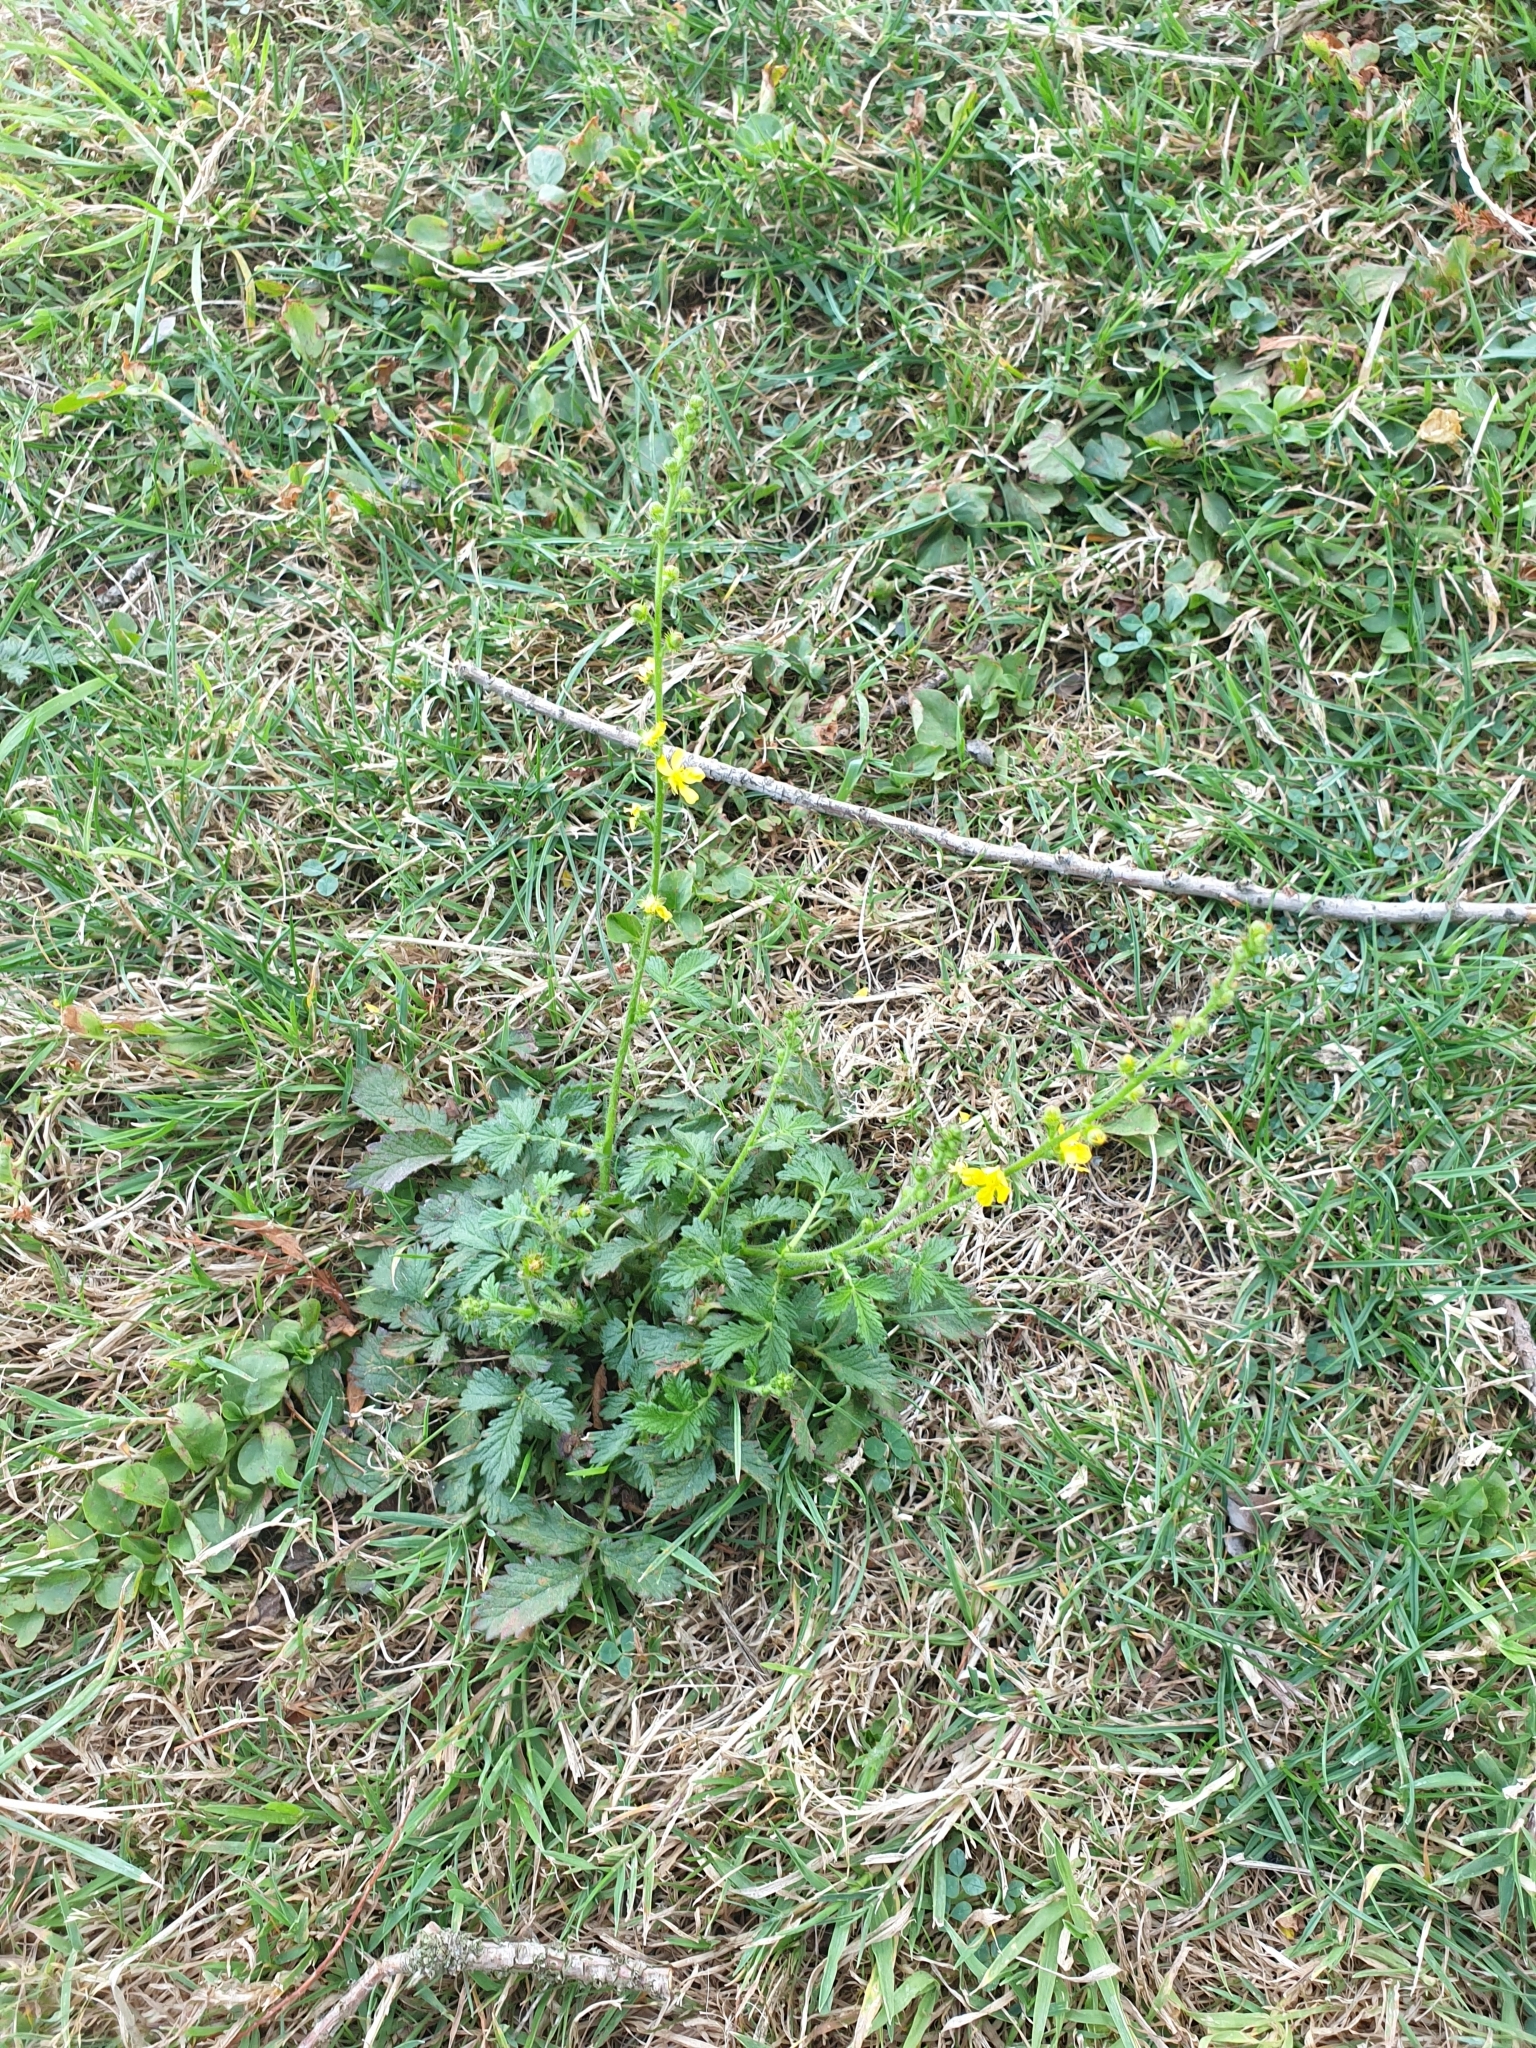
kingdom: Plantae
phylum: Tracheophyta
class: Magnoliopsida
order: Rosales
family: Rosaceae
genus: Agrimonia
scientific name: Agrimonia eupatoria
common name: Agrimony
